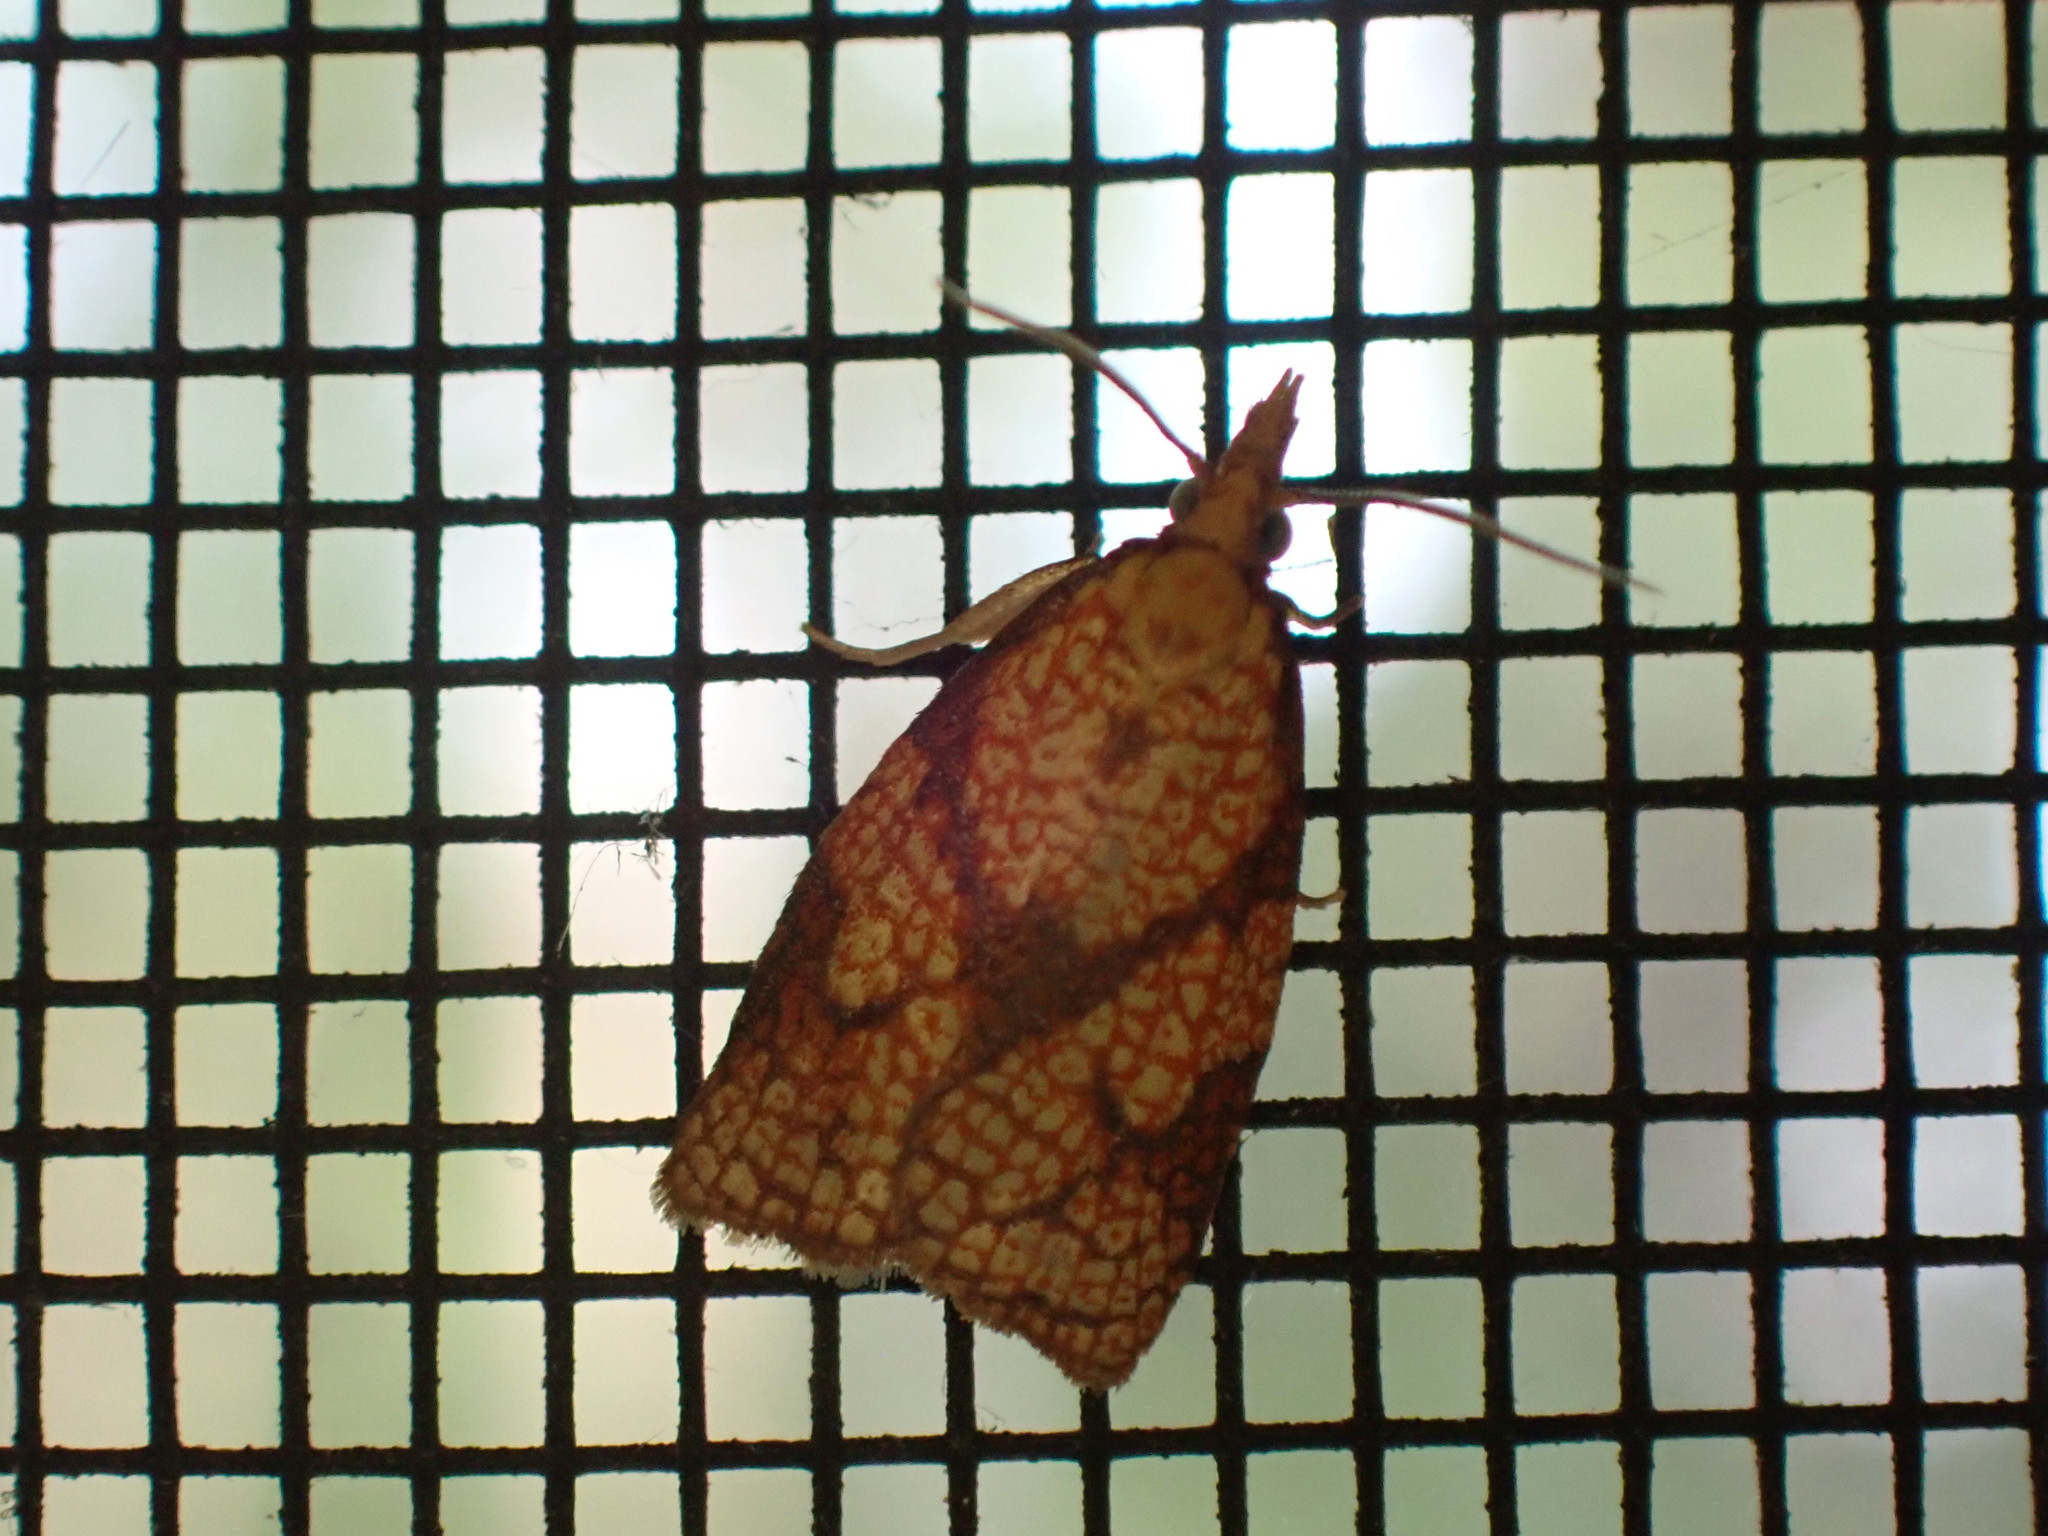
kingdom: Animalia
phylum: Arthropoda
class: Insecta
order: Lepidoptera
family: Tortricidae
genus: Cenopis
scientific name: Cenopis reticulatana
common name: Reticulated fruitworm moth
